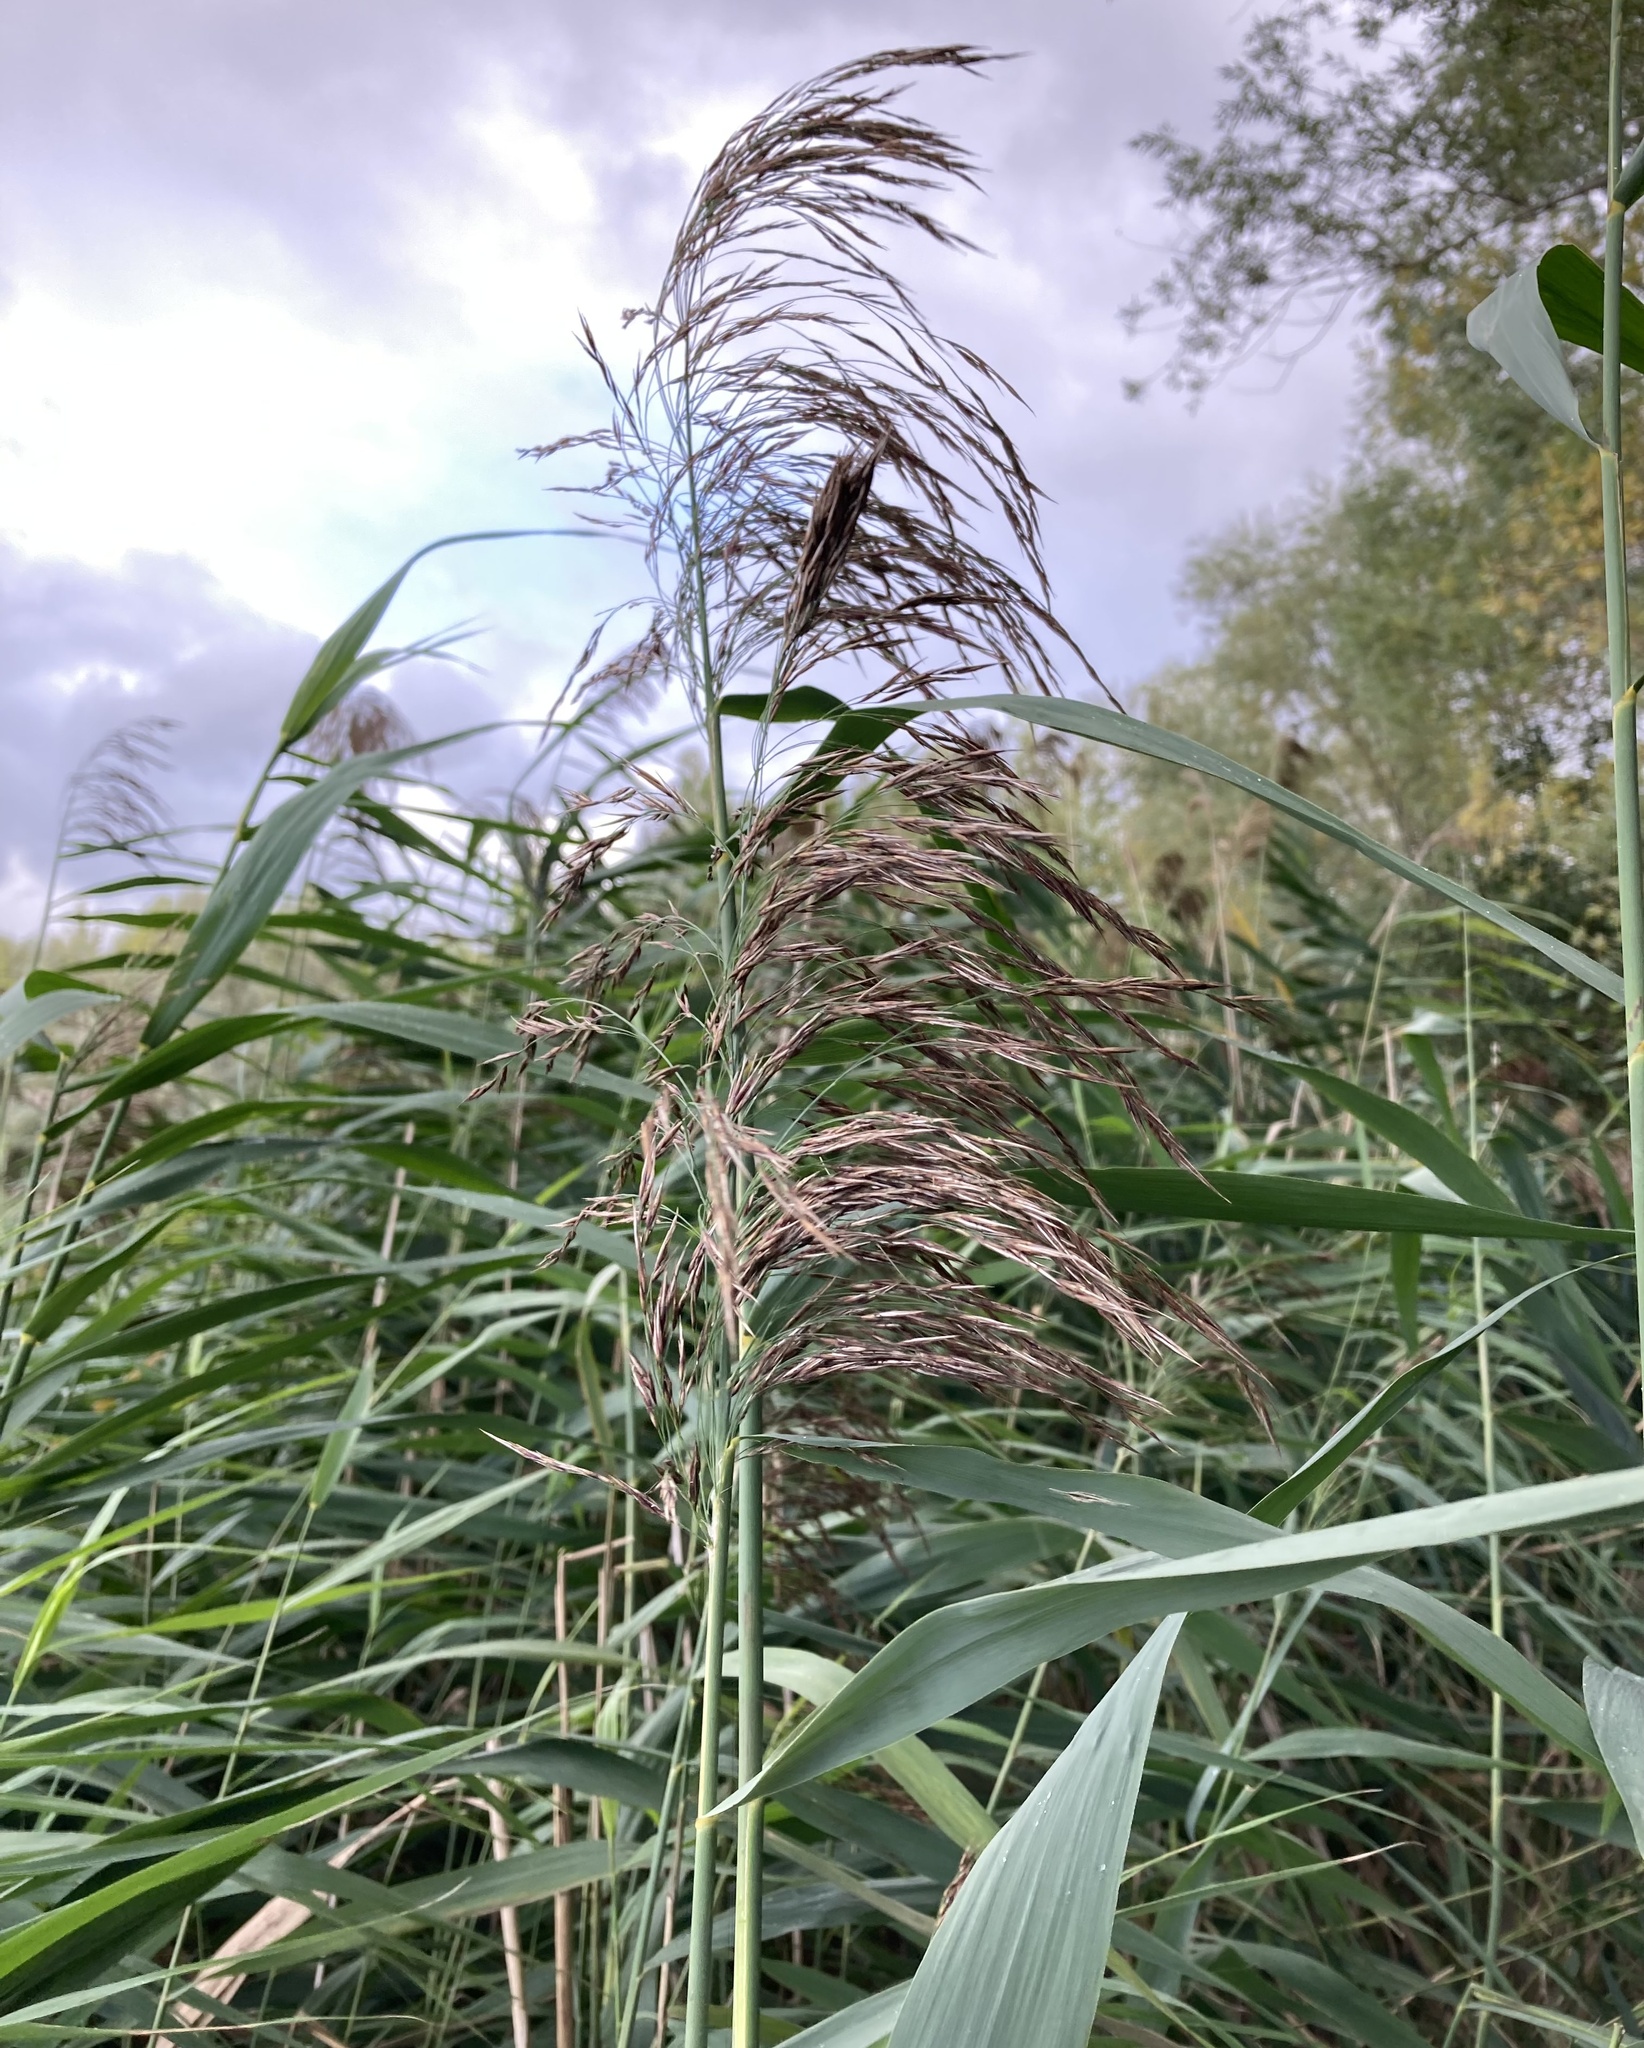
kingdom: Plantae
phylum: Tracheophyta
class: Liliopsida
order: Poales
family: Poaceae
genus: Phragmites
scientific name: Phragmites australis
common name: Common reed
